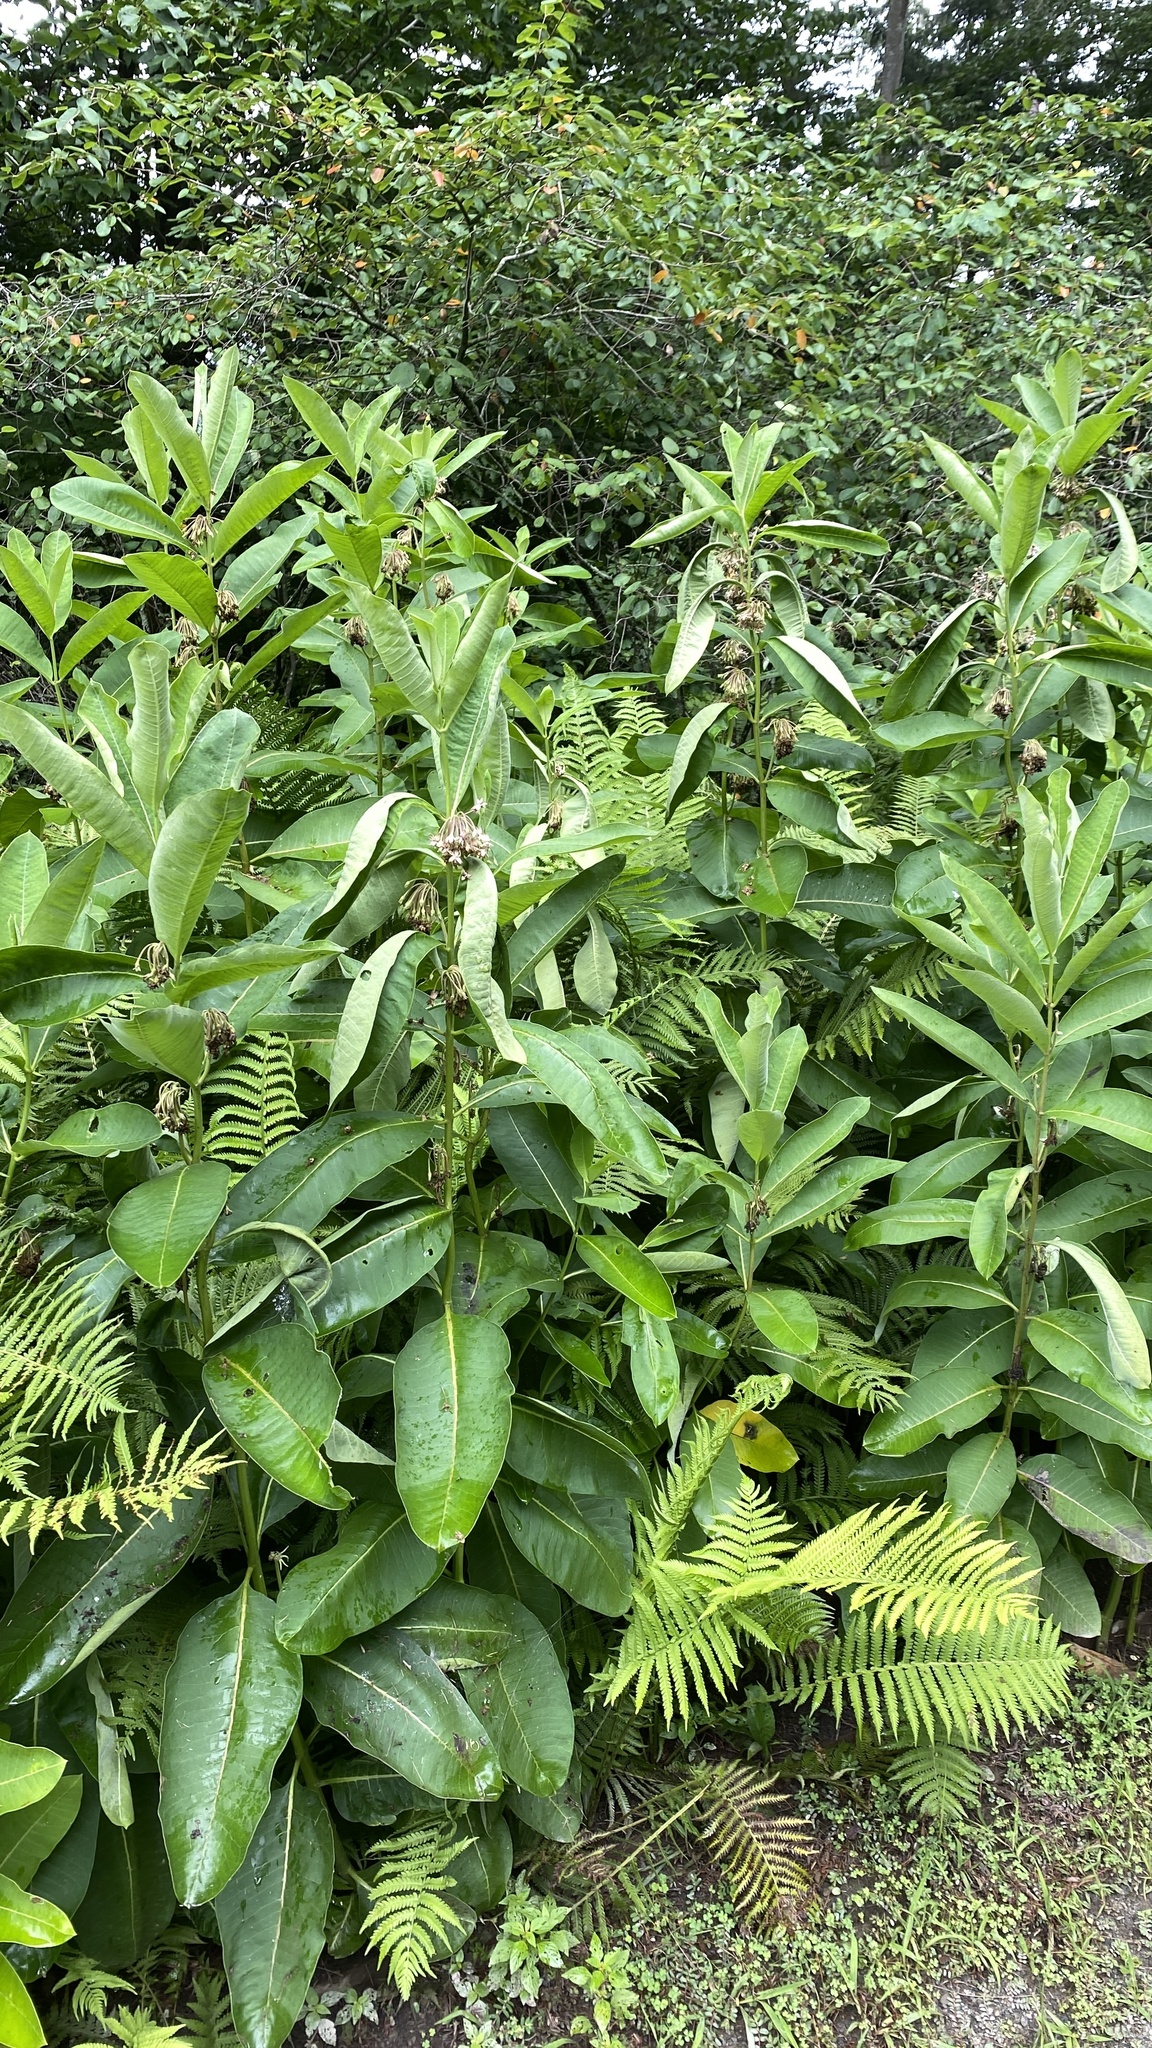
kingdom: Plantae
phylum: Tracheophyta
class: Magnoliopsida
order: Gentianales
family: Apocynaceae
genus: Asclepias
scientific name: Asclepias syriaca
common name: Common milkweed
